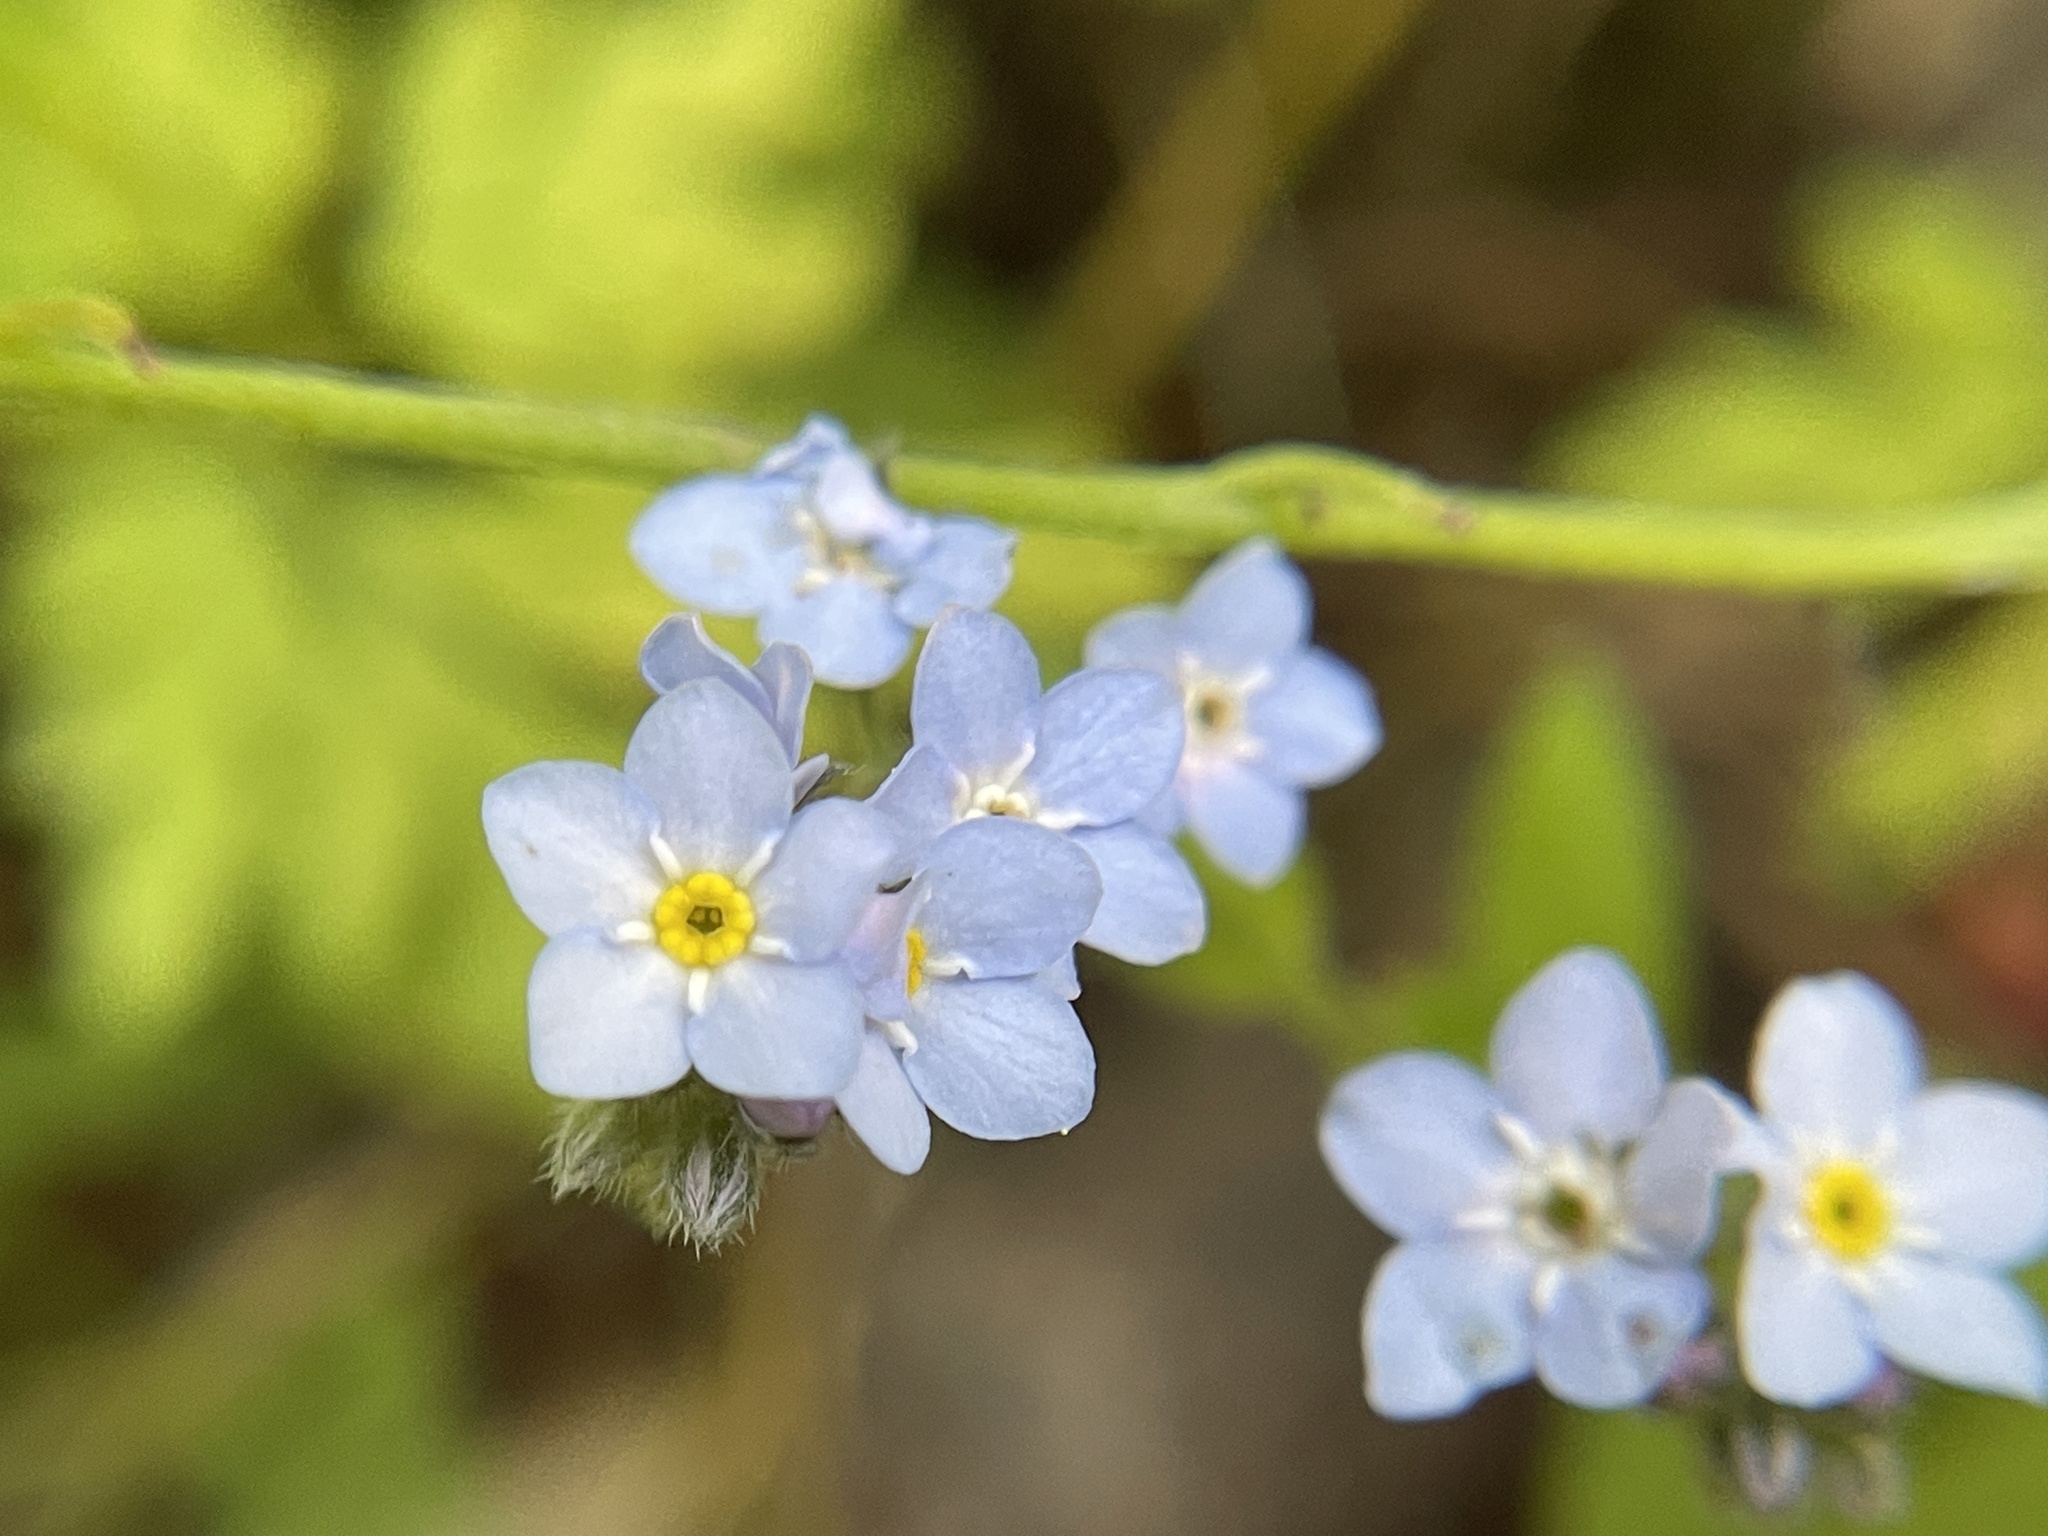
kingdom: Plantae
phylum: Tracheophyta
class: Magnoliopsida
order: Boraginales
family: Boraginaceae
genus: Myosotis
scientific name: Myosotis latifolia
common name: Broadleaf forget-me-not
